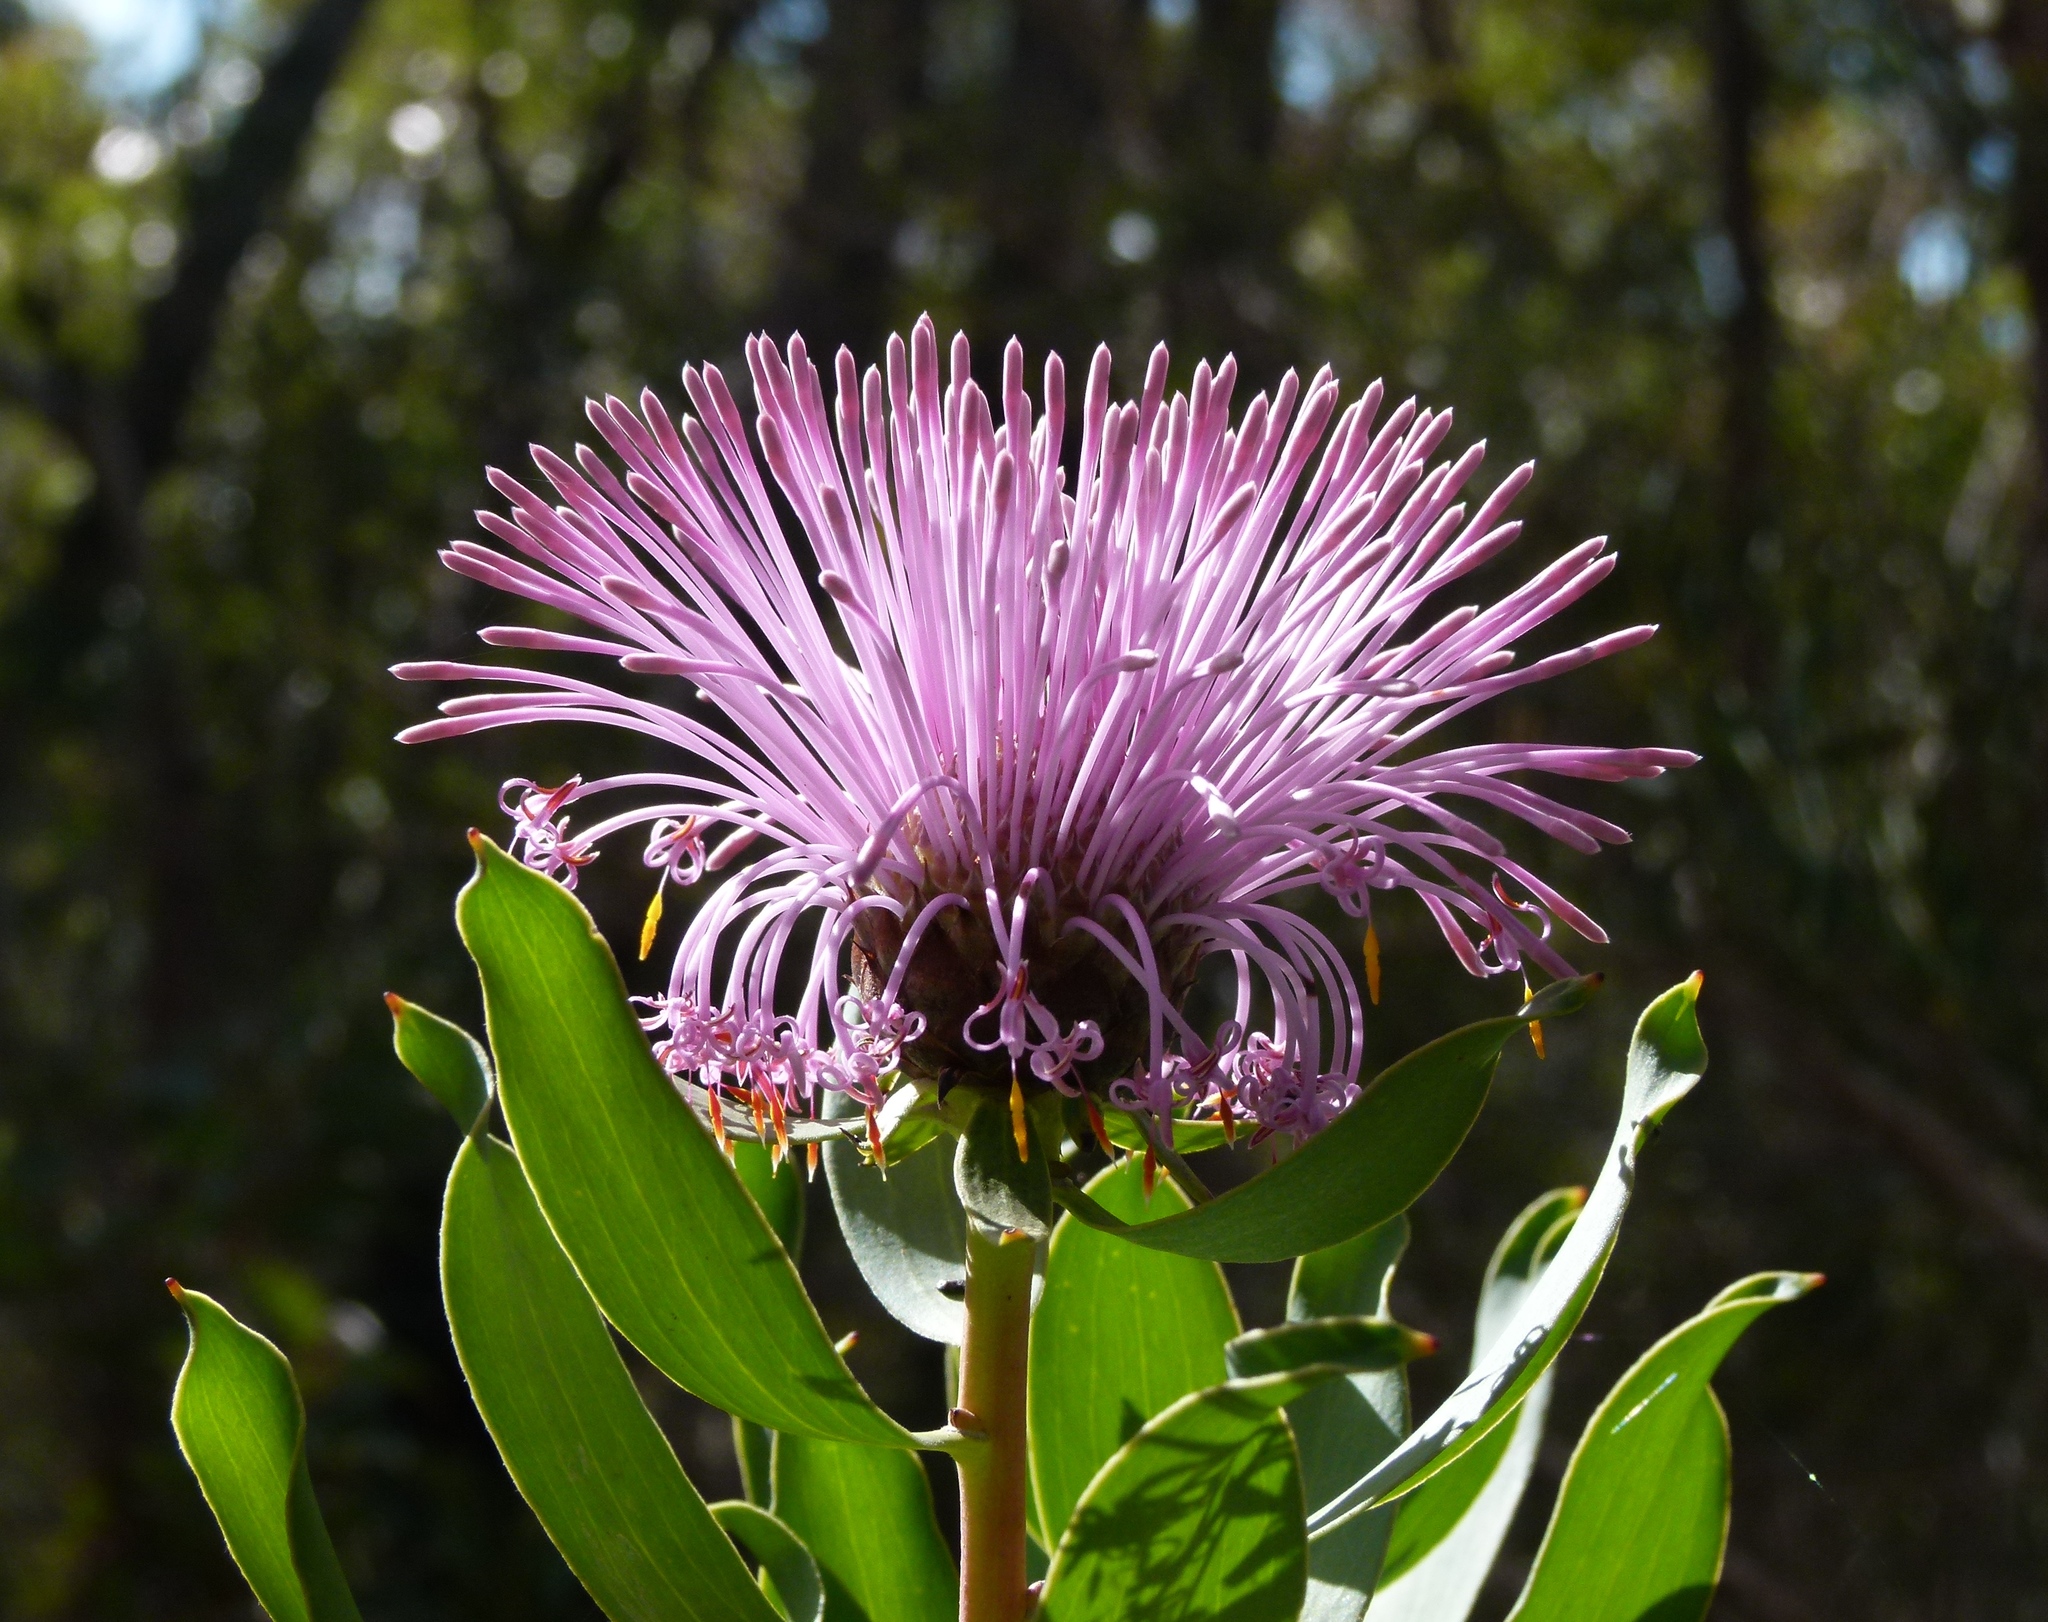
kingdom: Plantae
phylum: Tracheophyta
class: Magnoliopsida
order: Proteales
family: Proteaceae
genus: Isopogon
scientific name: Isopogon latifolius
